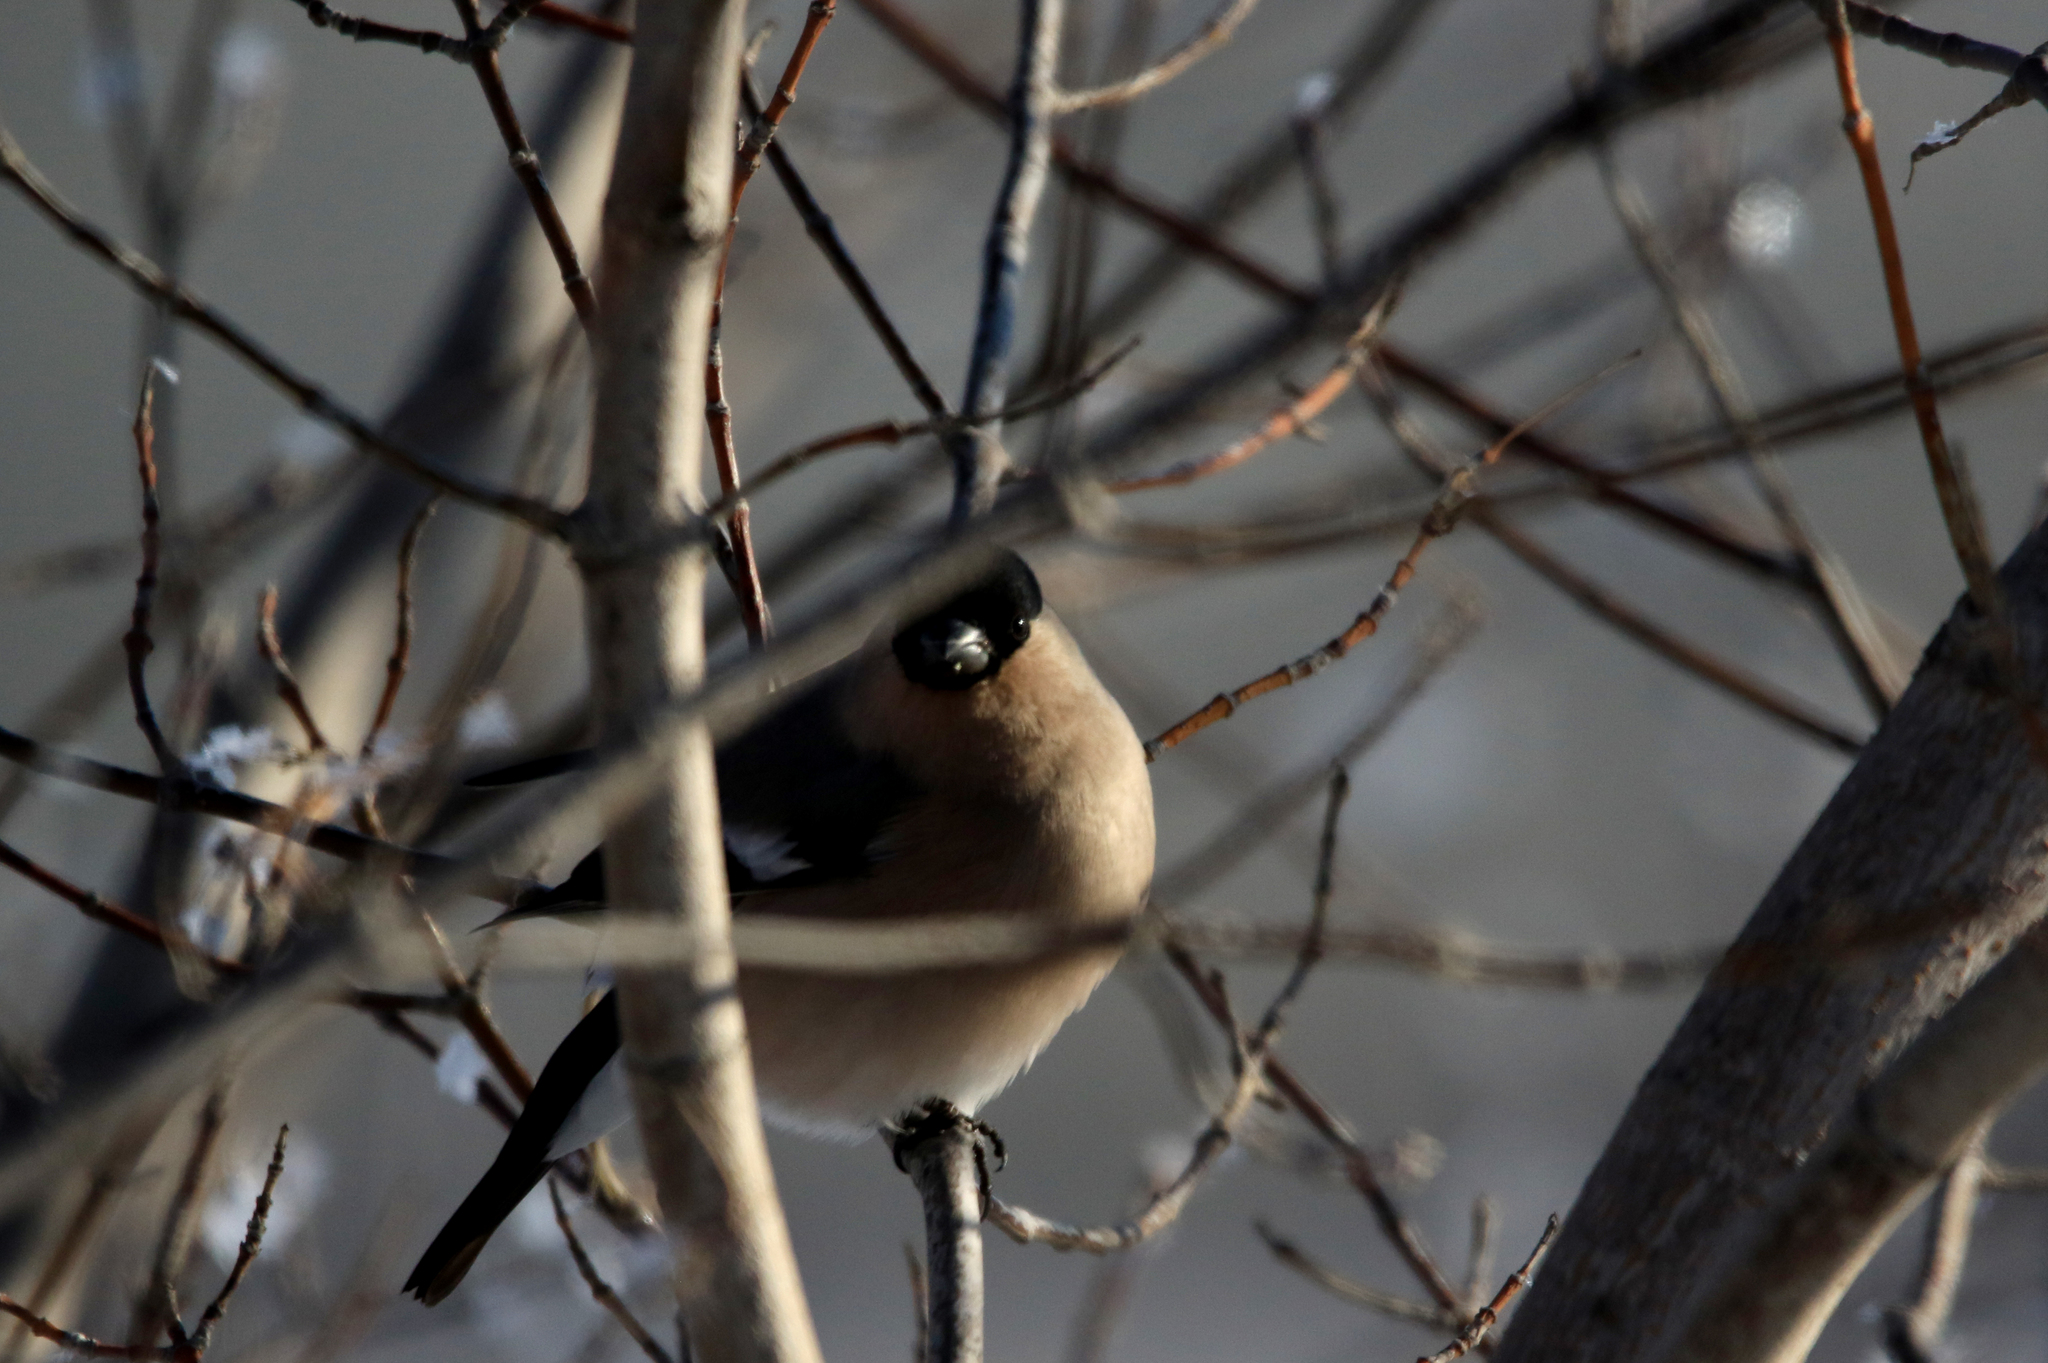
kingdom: Animalia
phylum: Chordata
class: Aves
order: Passeriformes
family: Fringillidae
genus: Pyrrhula
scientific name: Pyrrhula pyrrhula
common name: Eurasian bullfinch
